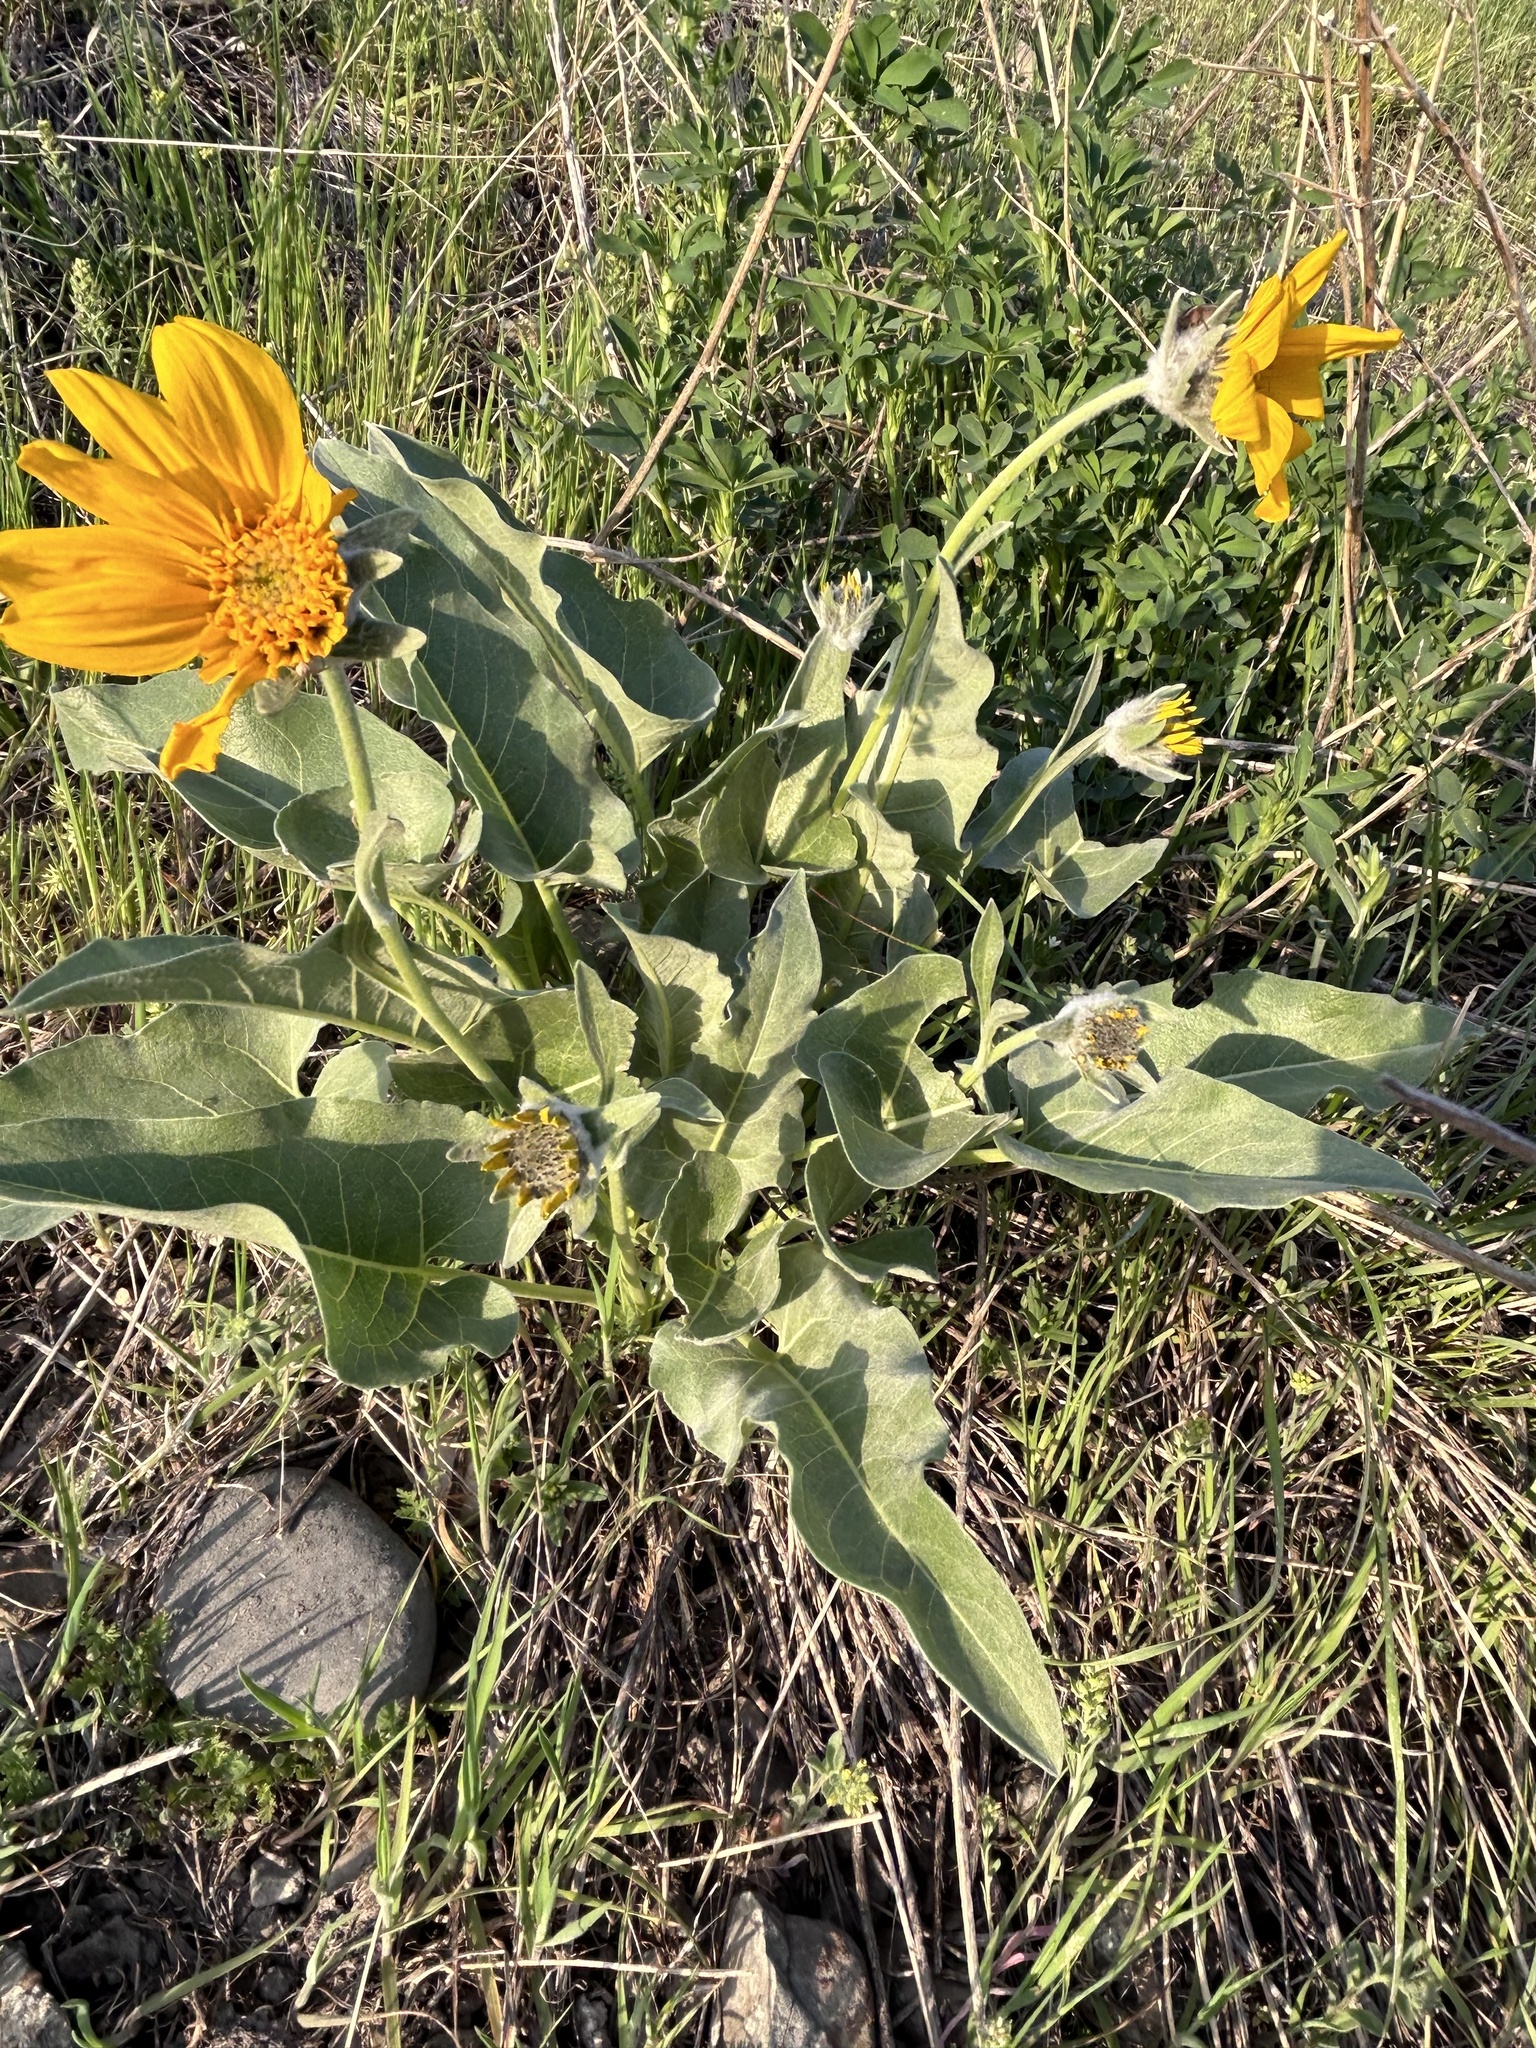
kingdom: Plantae
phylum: Tracheophyta
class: Magnoliopsida
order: Asterales
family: Asteraceae
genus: Wyethia
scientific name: Wyethia sagittata
